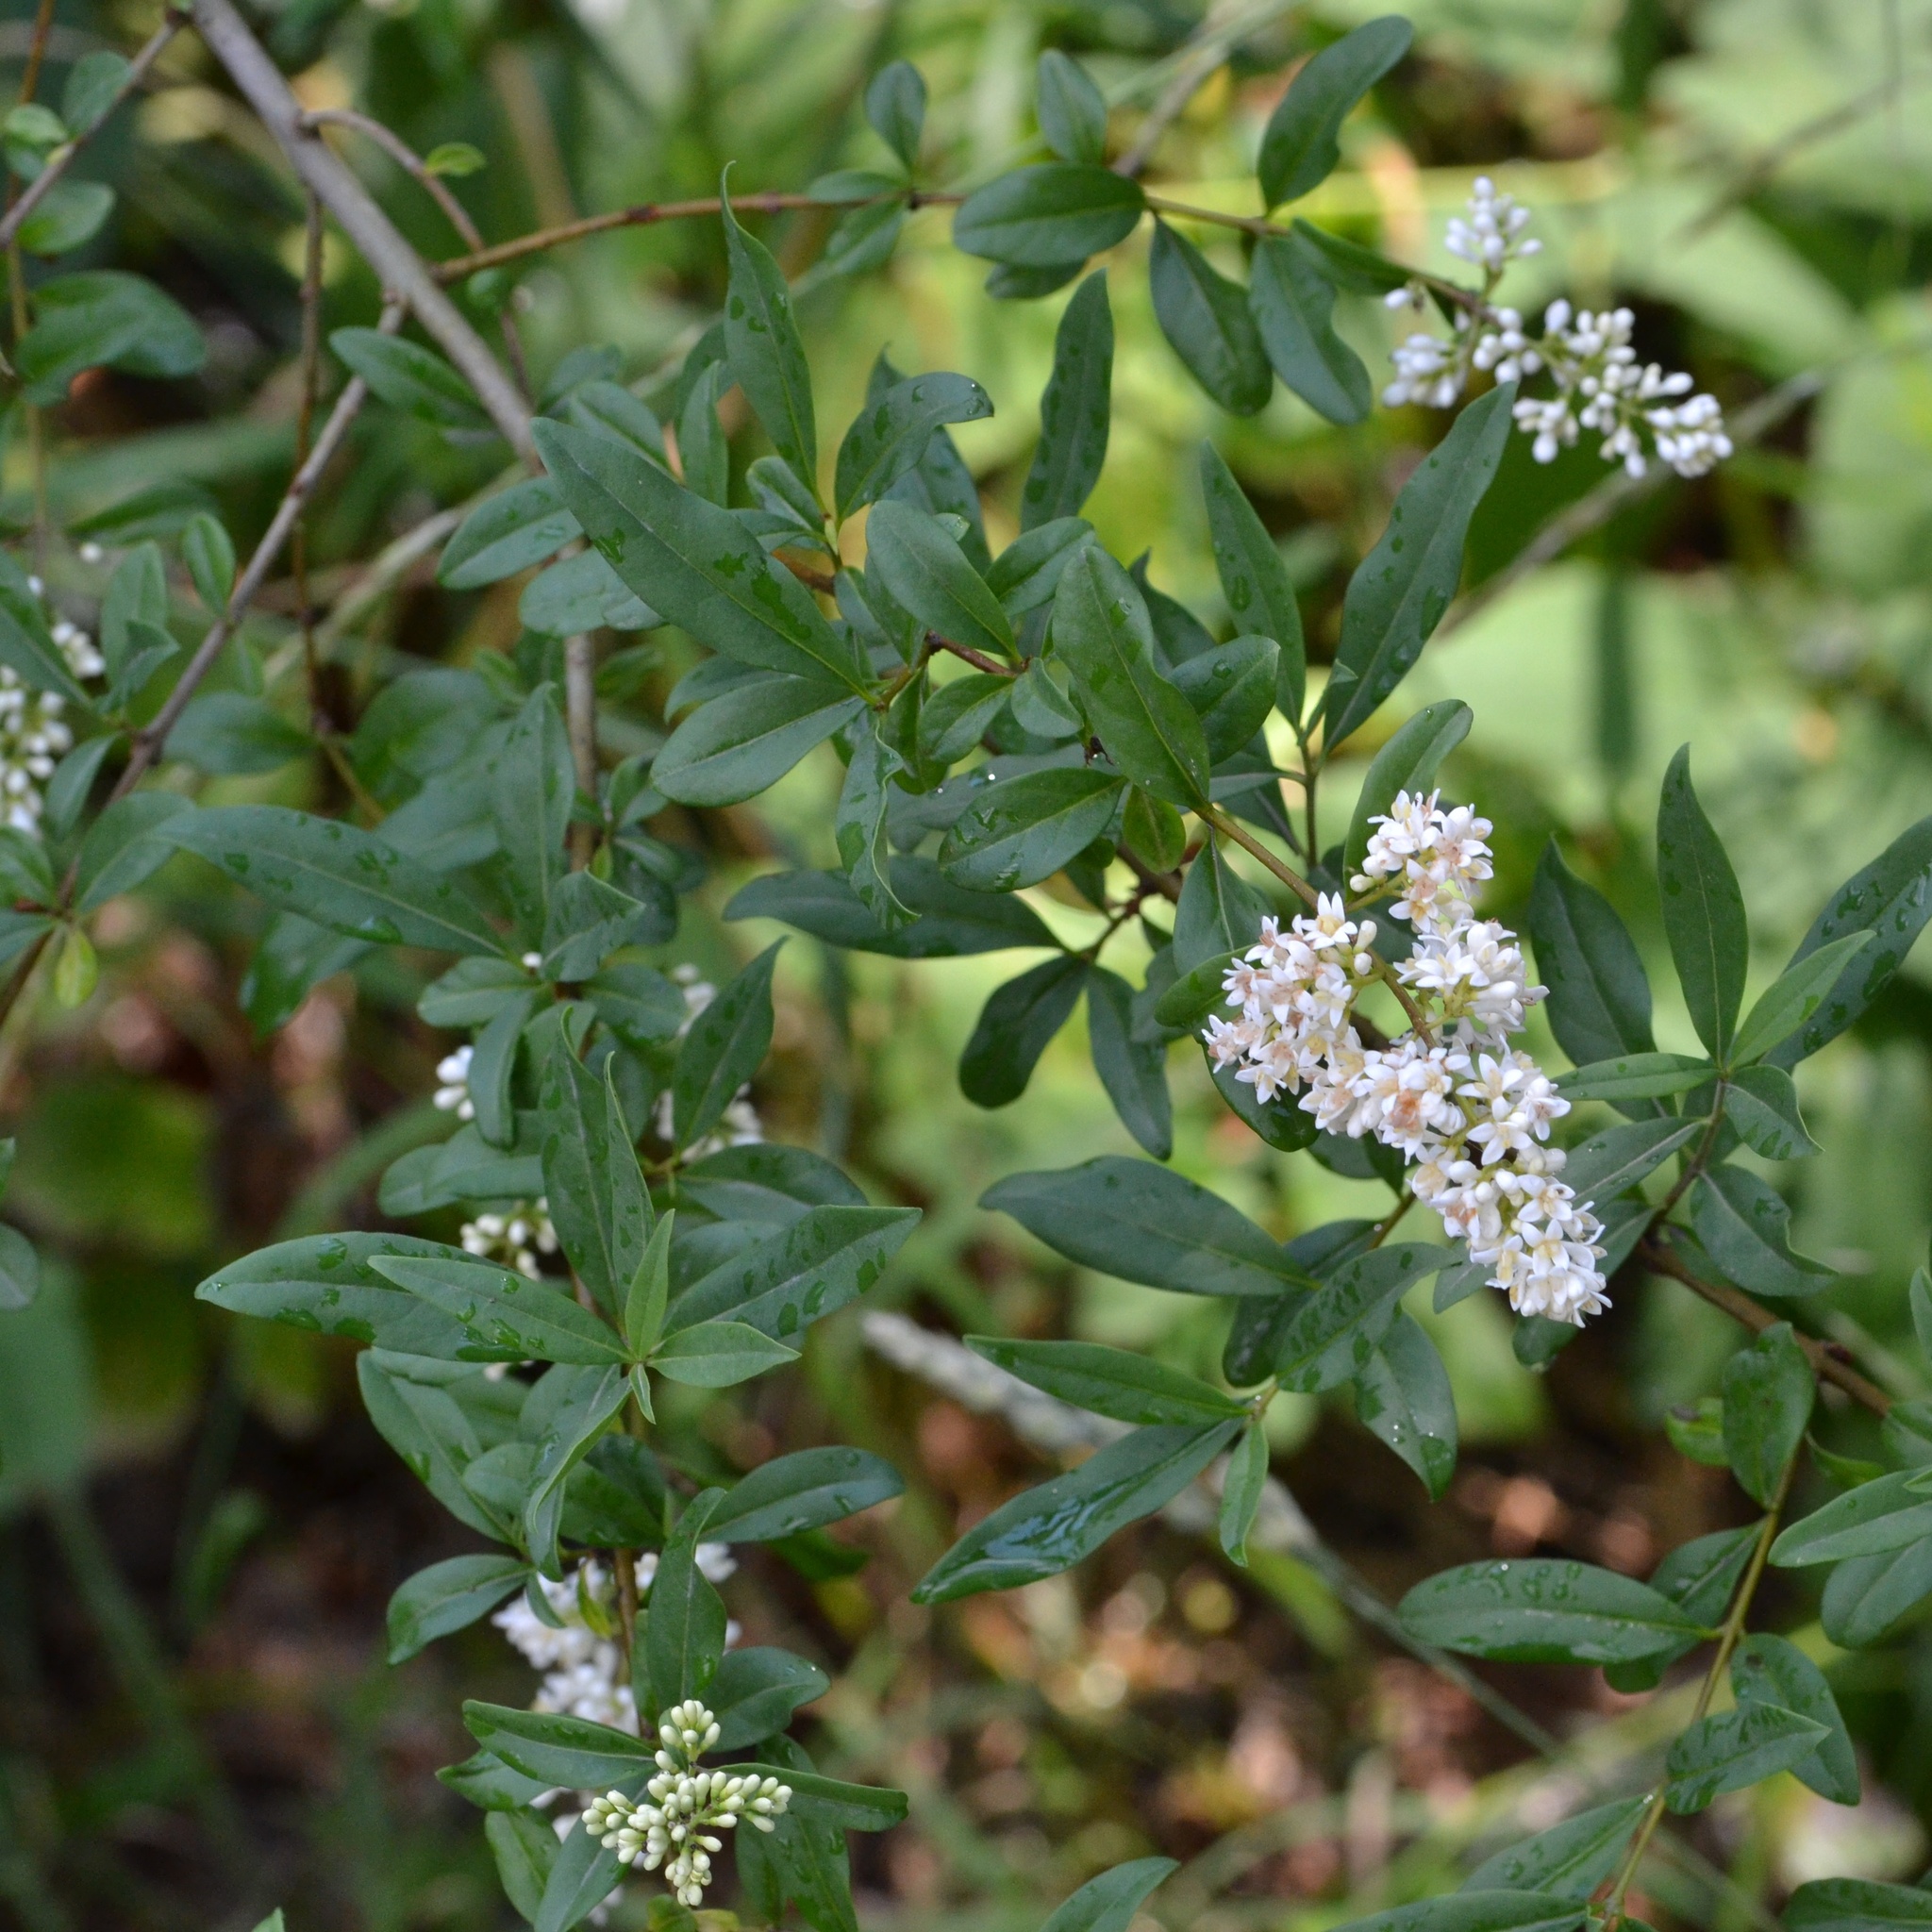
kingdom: Plantae
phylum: Tracheophyta
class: Magnoliopsida
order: Lamiales
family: Oleaceae
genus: Ligustrum
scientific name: Ligustrum vulgare
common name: Wild privet
